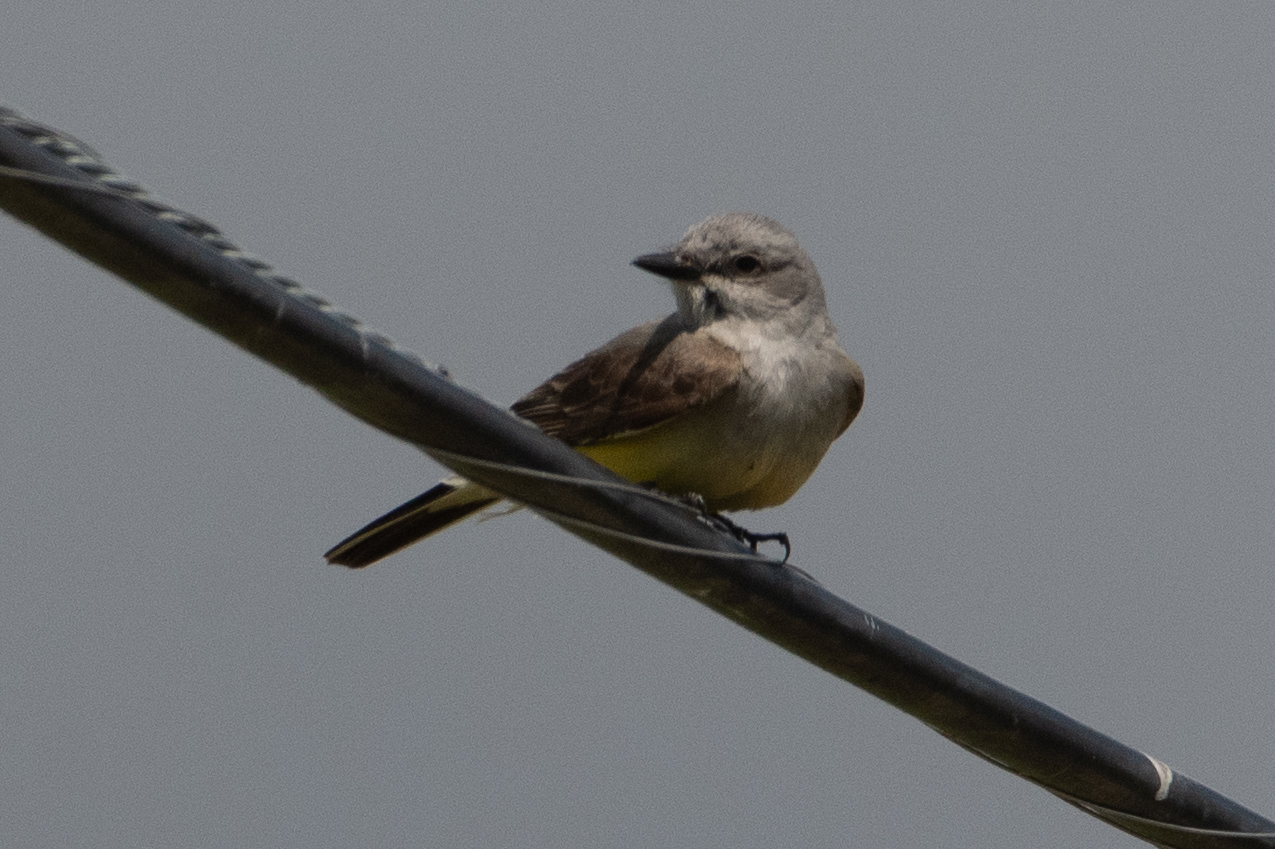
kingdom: Animalia
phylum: Chordata
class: Aves
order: Passeriformes
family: Tyrannidae
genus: Tyrannus
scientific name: Tyrannus verticalis
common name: Western kingbird
